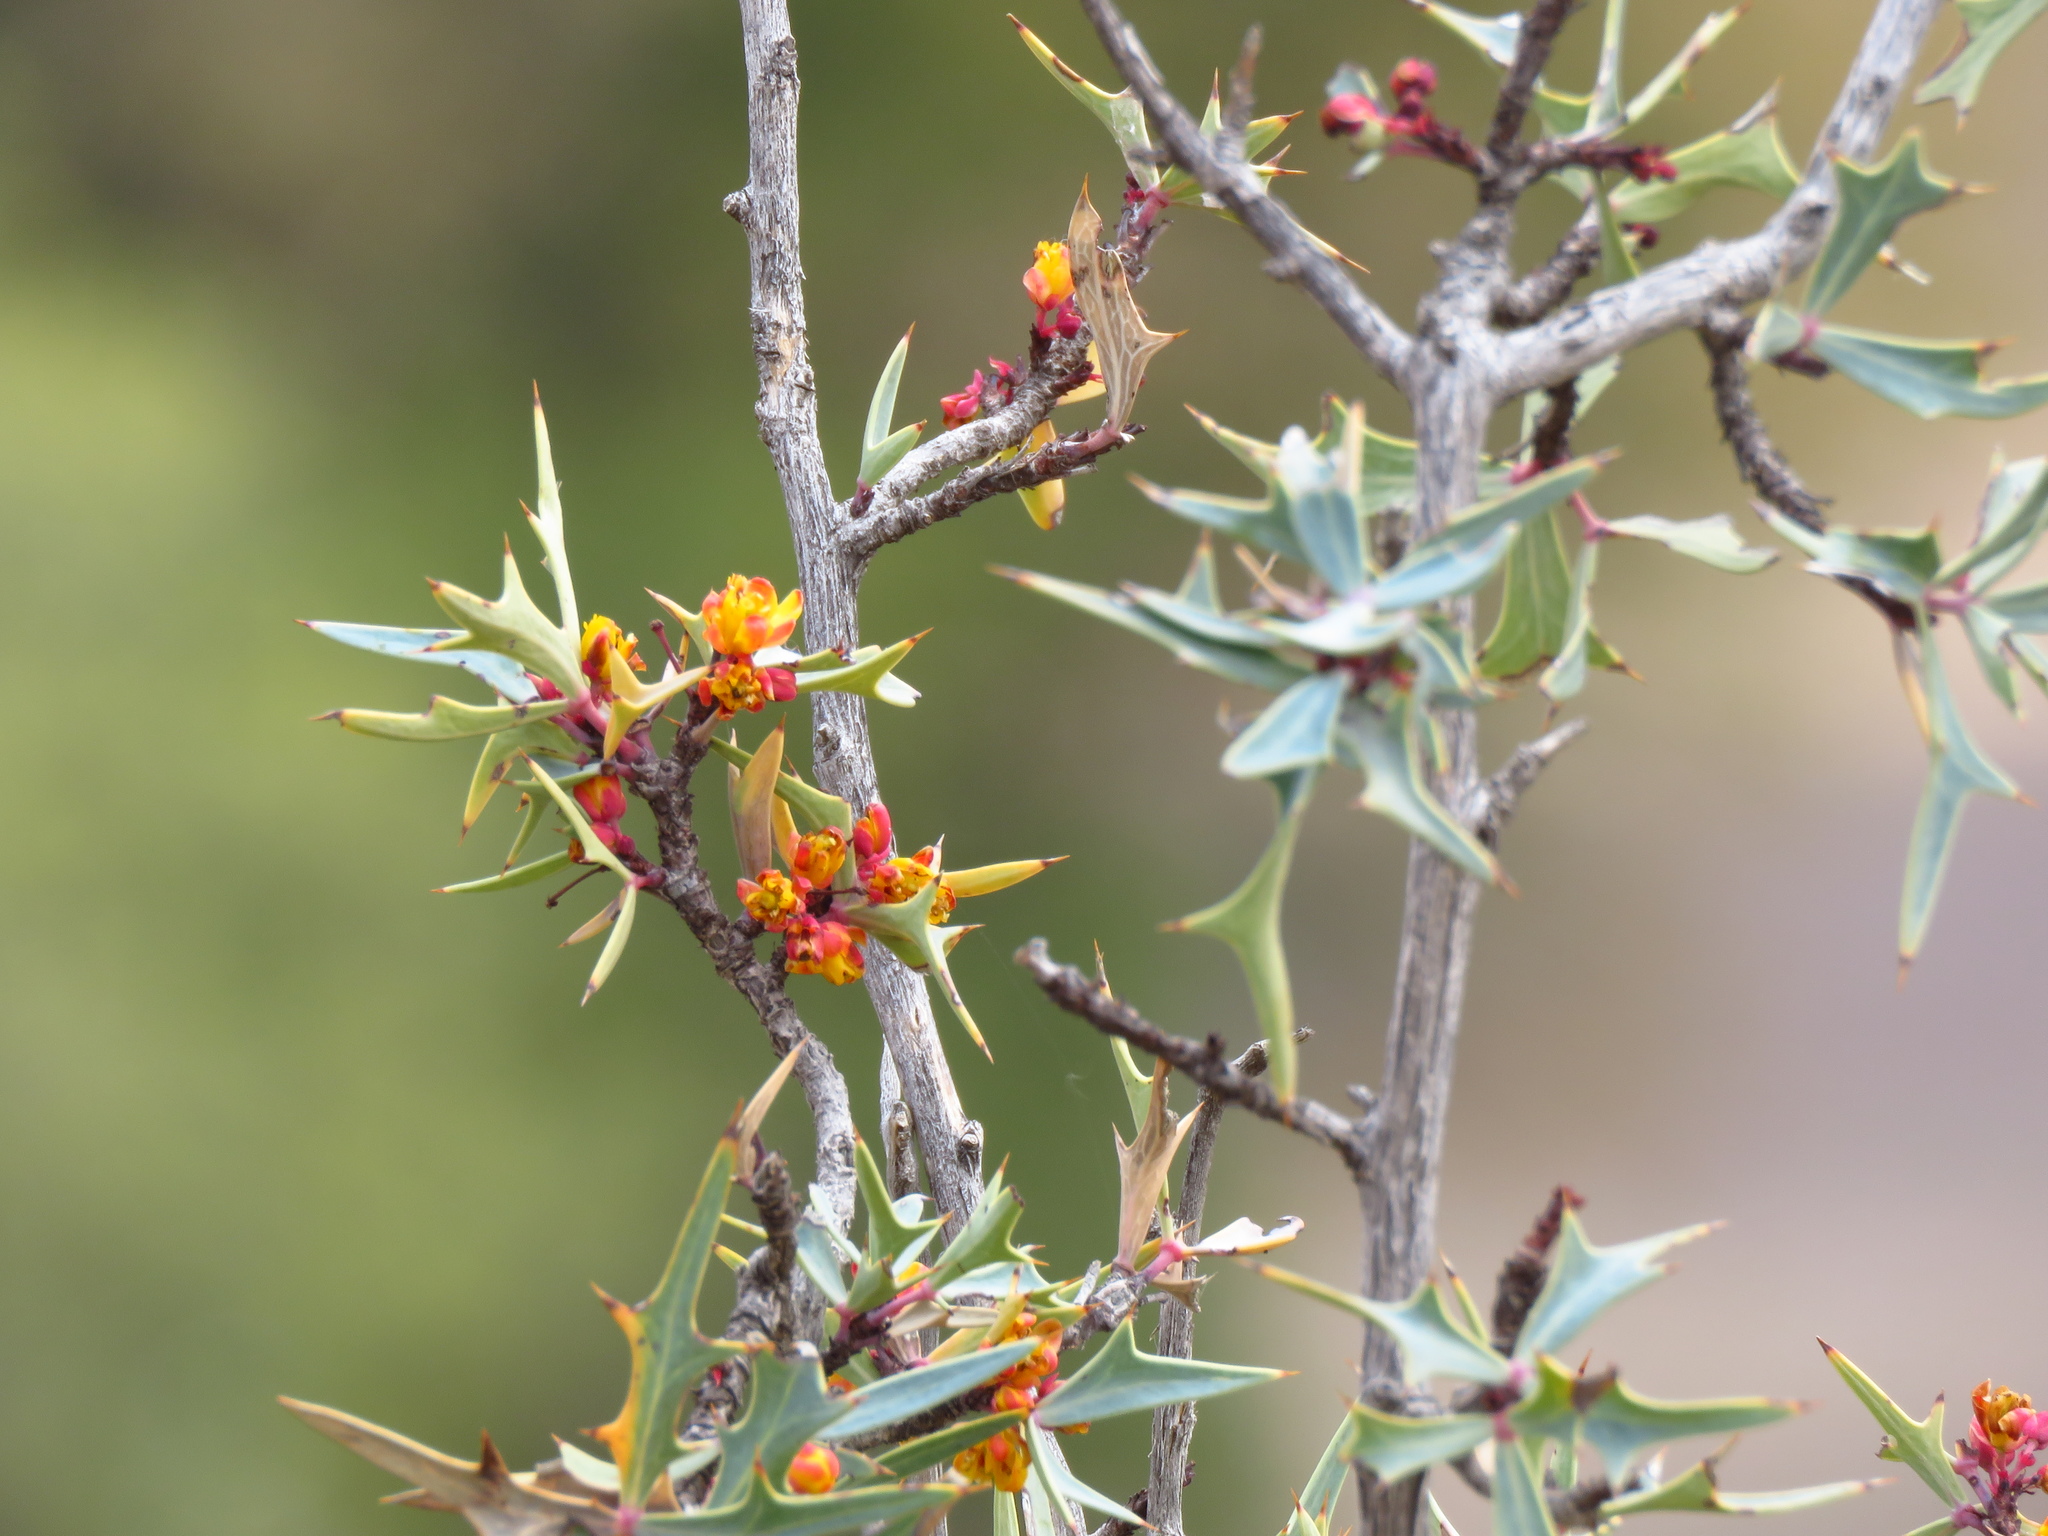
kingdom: Plantae
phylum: Tracheophyta
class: Magnoliopsida
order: Ranunculales
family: Berberidaceae
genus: Alloberberis
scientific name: Alloberberis trifoliolata
